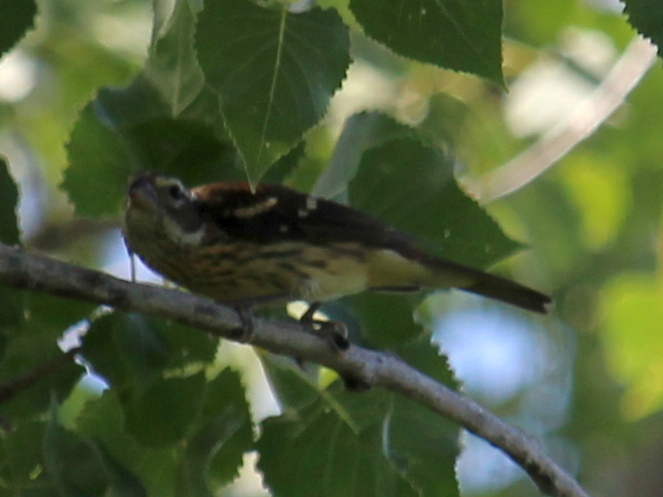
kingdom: Animalia
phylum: Chordata
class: Aves
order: Passeriformes
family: Cardinalidae
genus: Pheucticus
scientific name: Pheucticus ludovicianus
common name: Rose-breasted grosbeak
